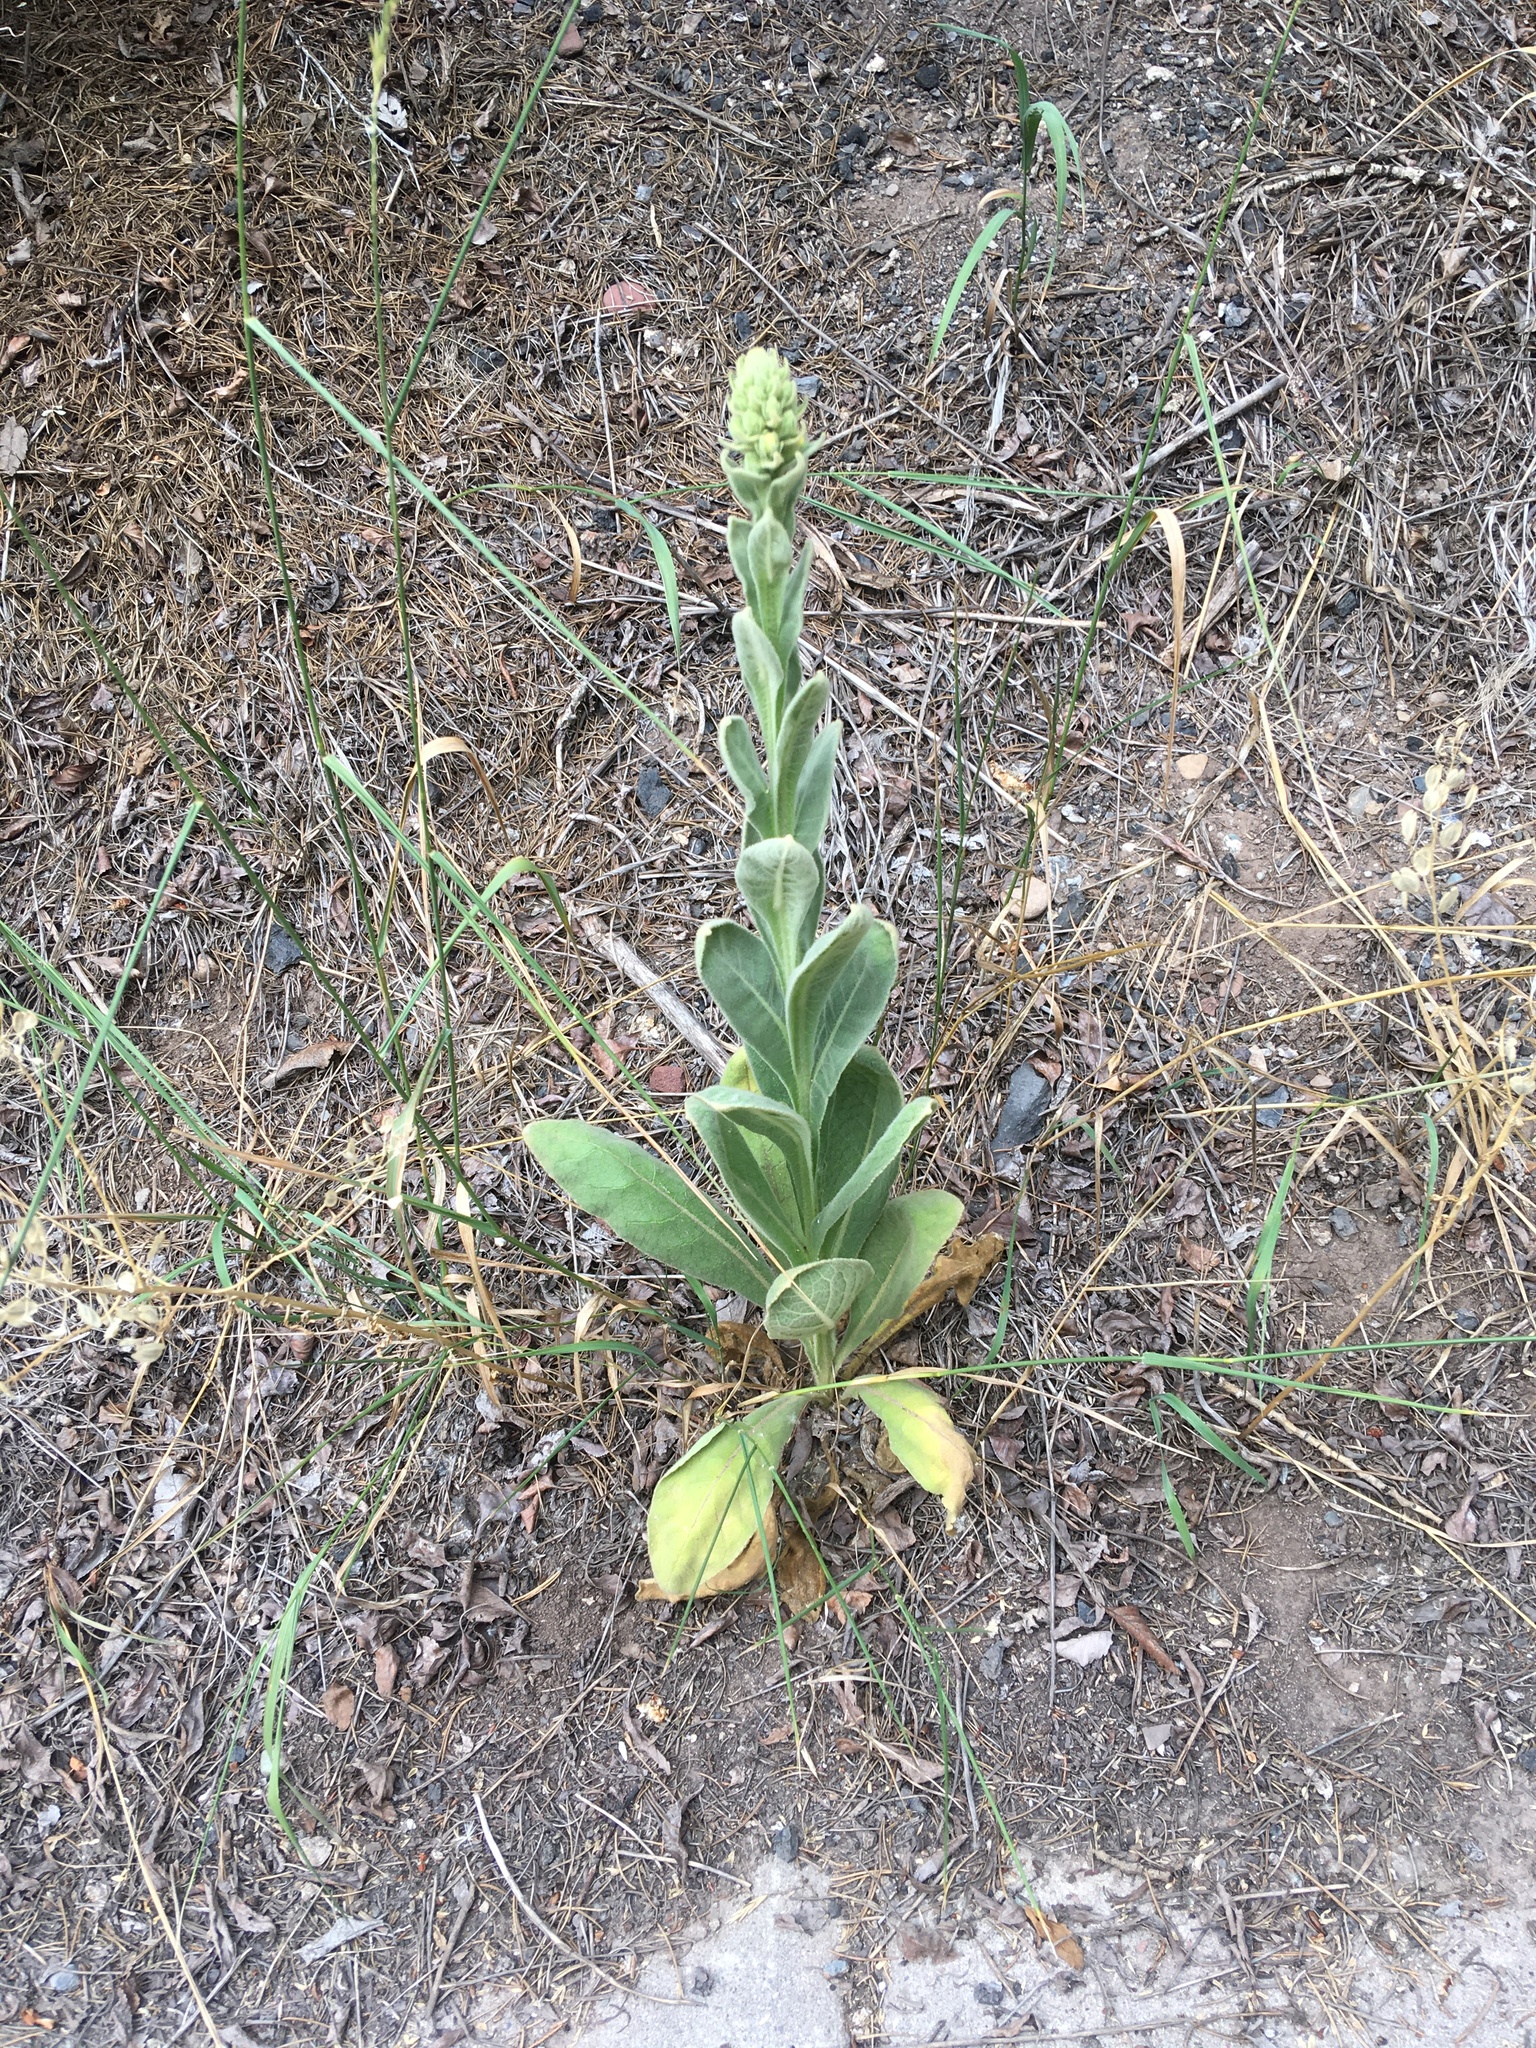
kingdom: Plantae
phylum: Tracheophyta
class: Magnoliopsida
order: Lamiales
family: Scrophulariaceae
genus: Verbascum
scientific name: Verbascum thapsus
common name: Common mullein
